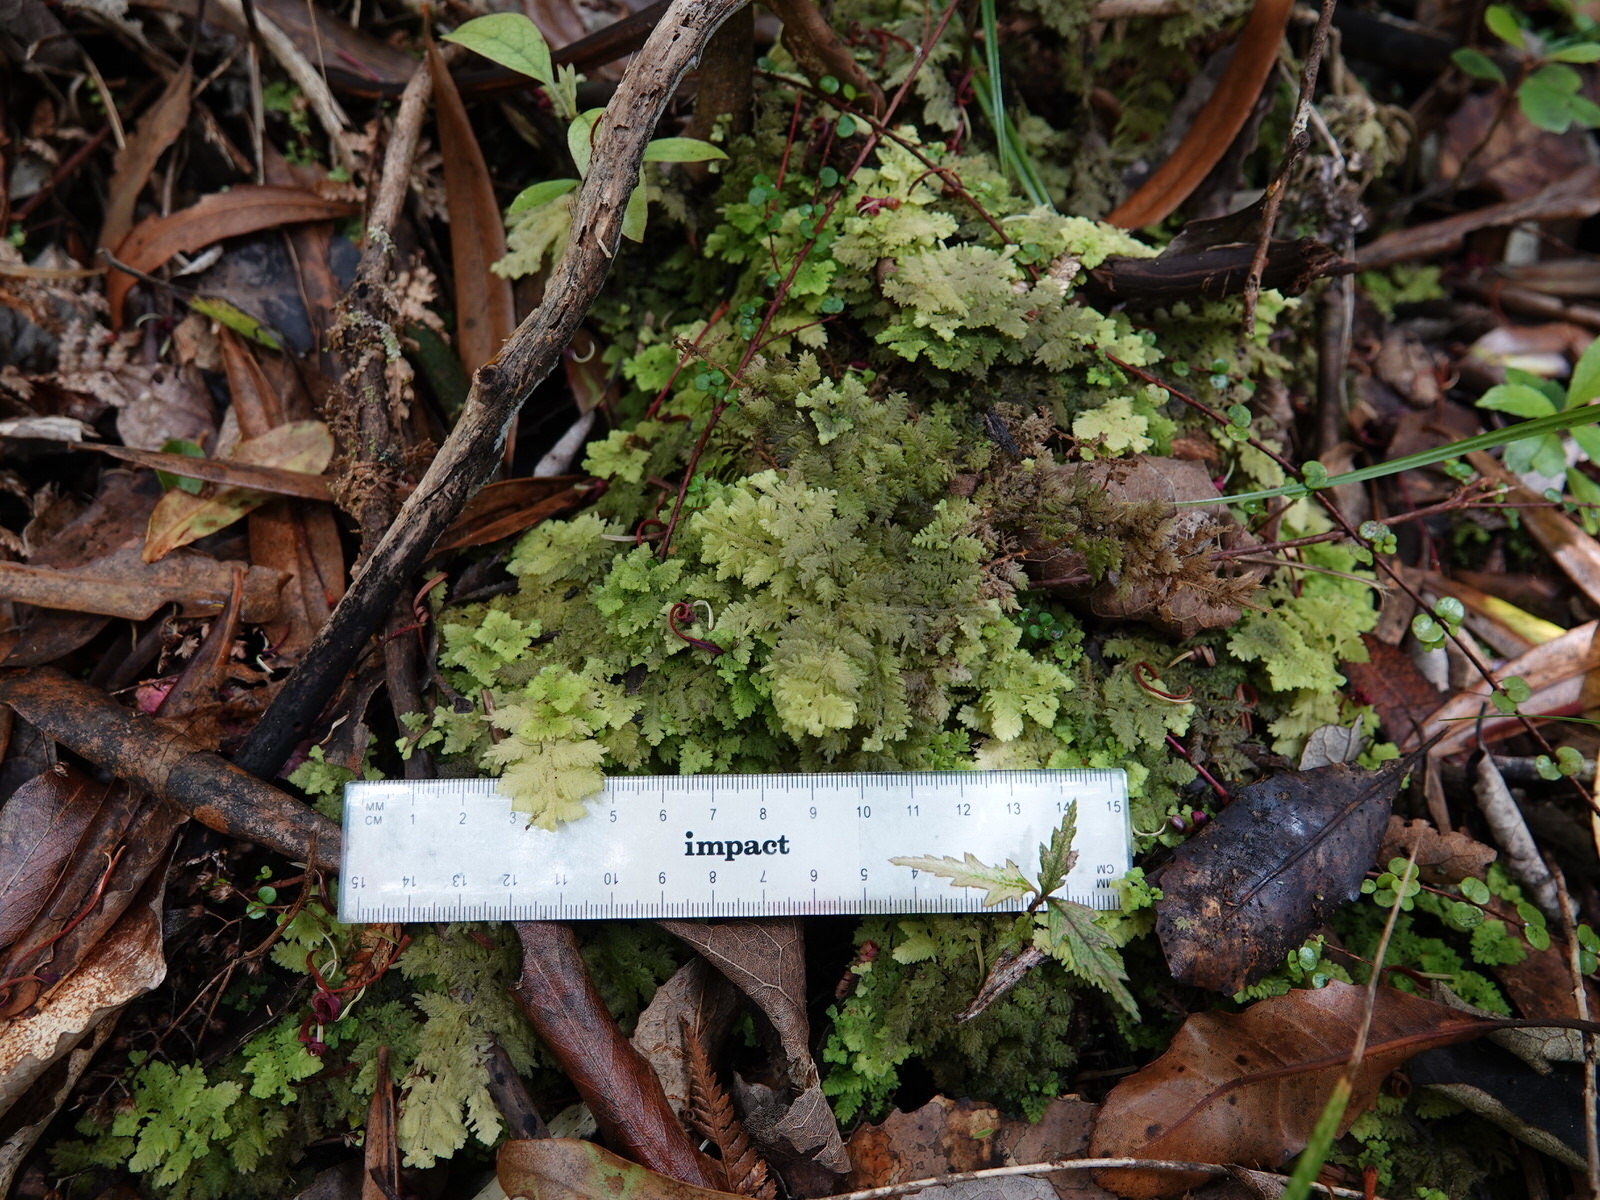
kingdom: Plantae
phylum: Marchantiophyta
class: Jungermanniopsida
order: Jungermanniales
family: Trichocoleaceae
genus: Trichocolea
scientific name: Trichocolea mollissima
